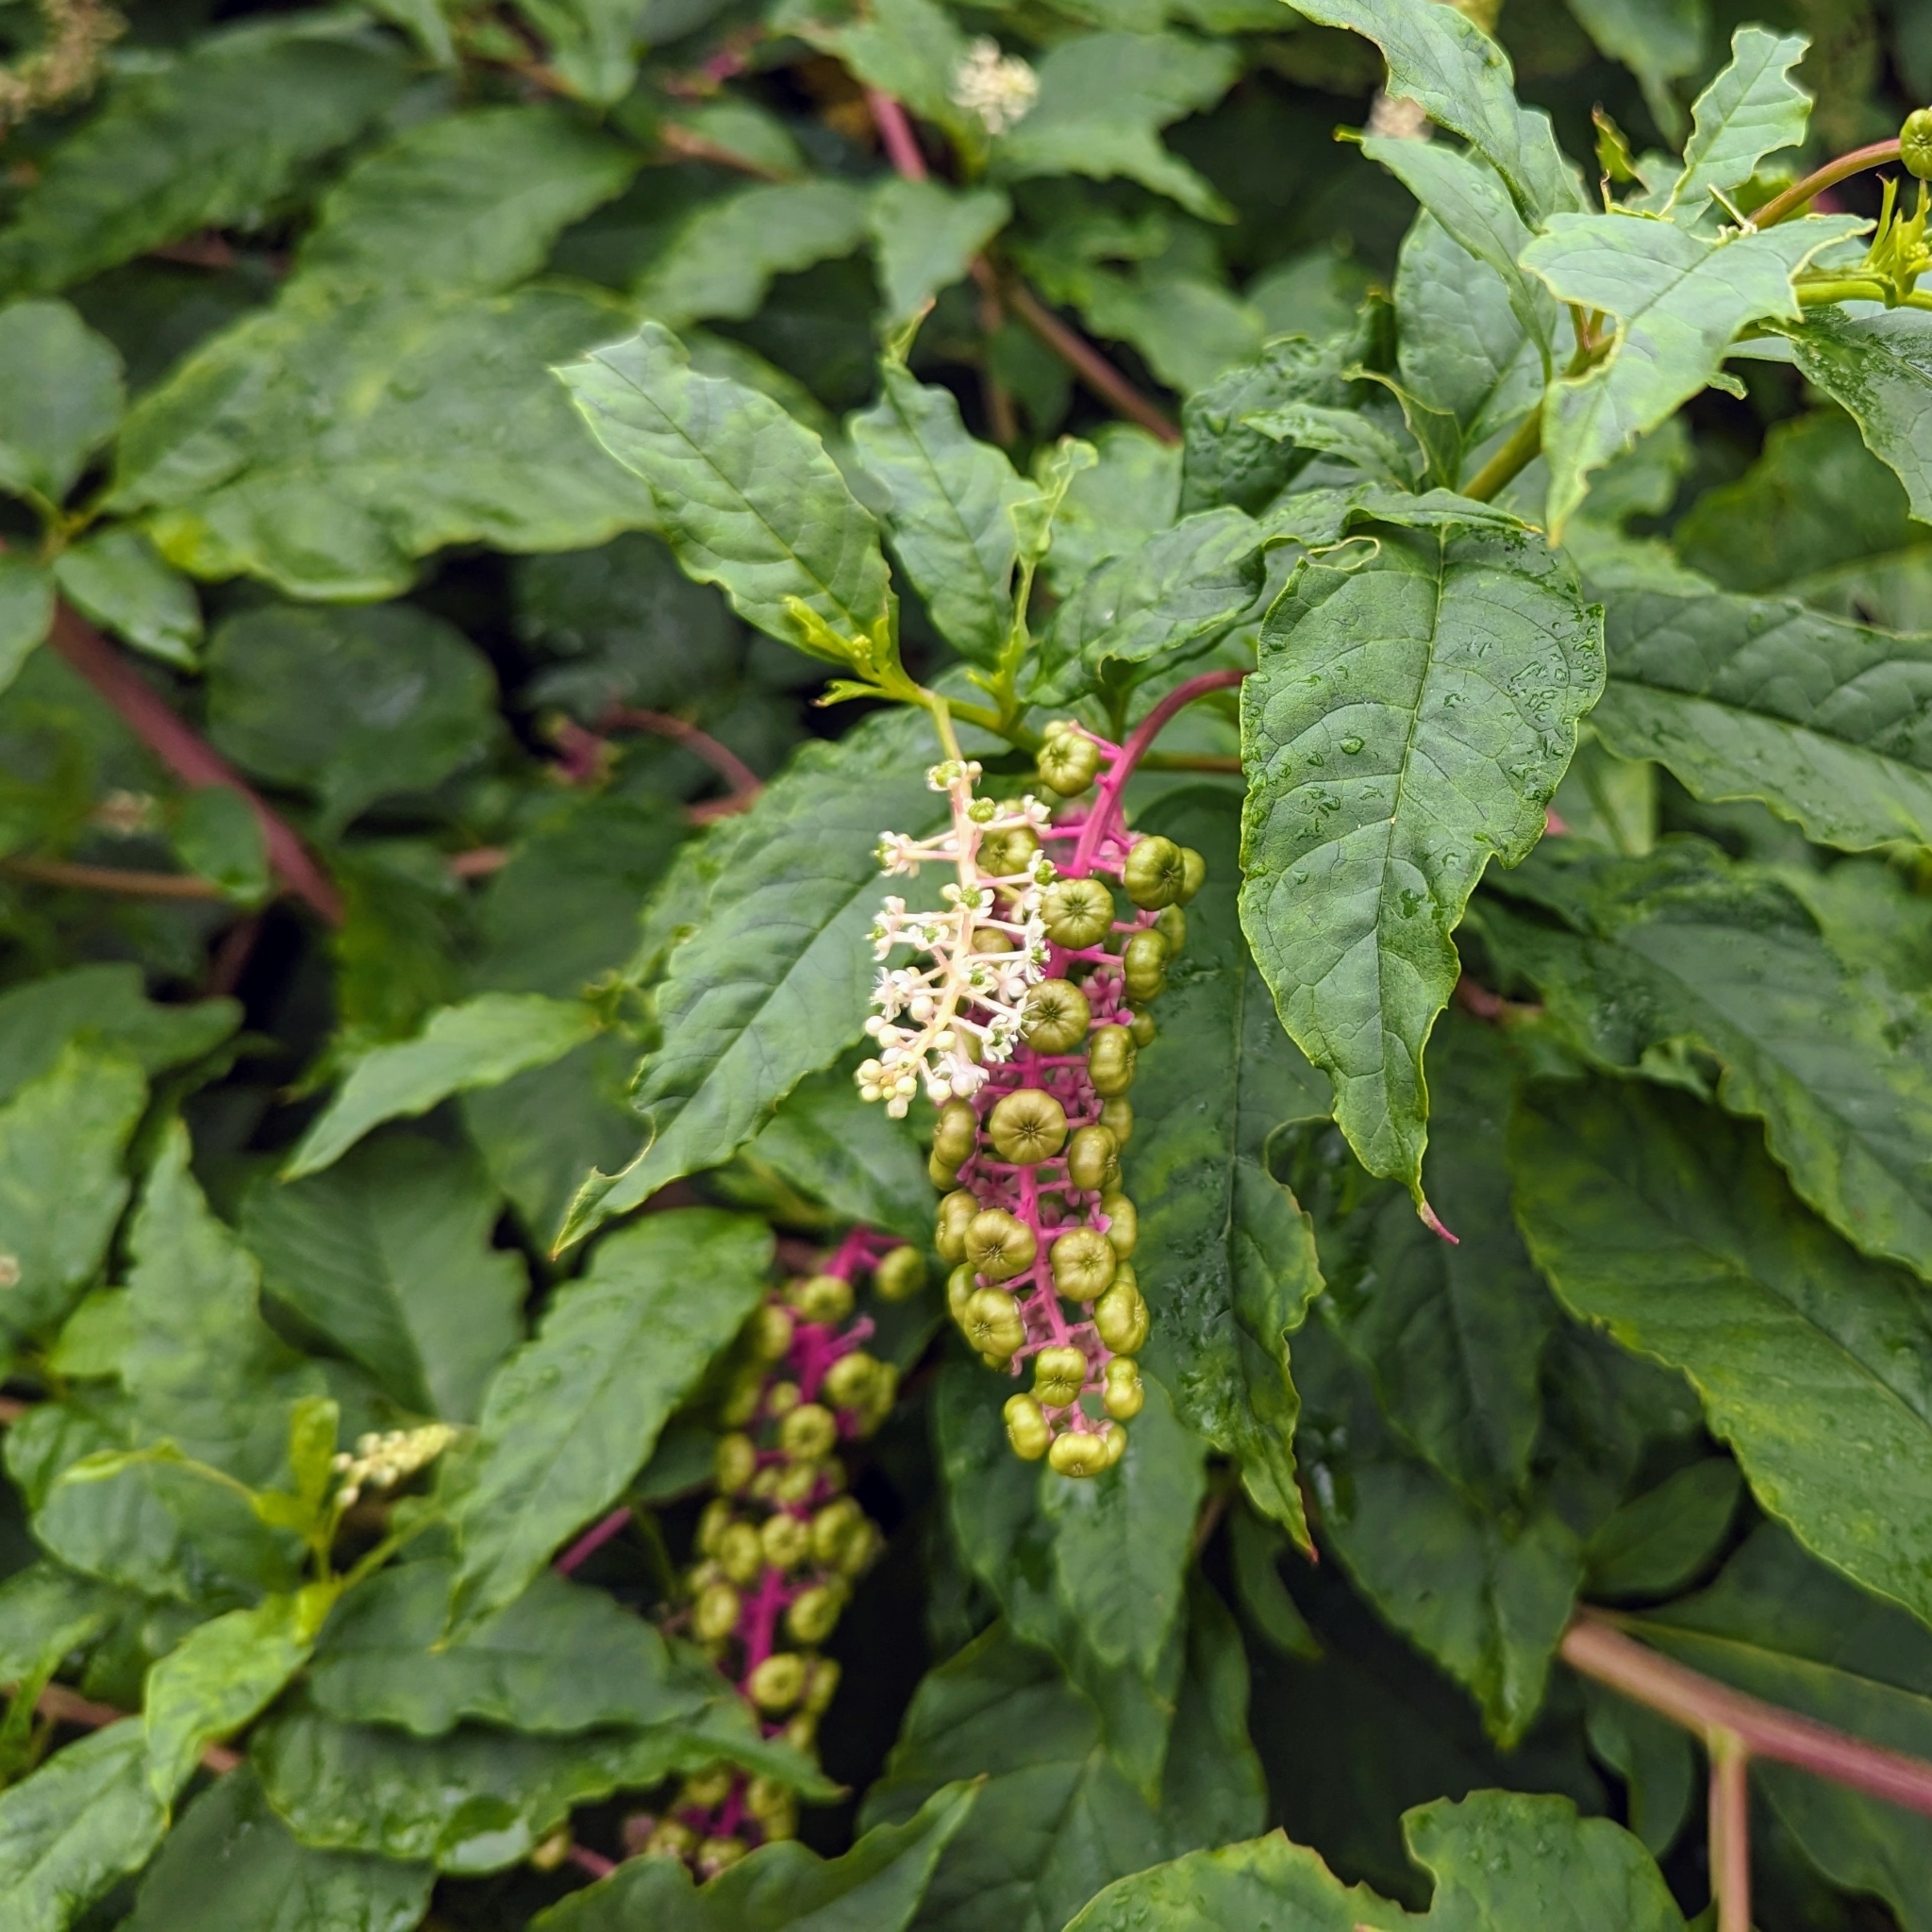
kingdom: Plantae
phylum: Tracheophyta
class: Magnoliopsida
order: Caryophyllales
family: Phytolaccaceae
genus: Phytolacca
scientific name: Phytolacca americana
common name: American pokeweed
